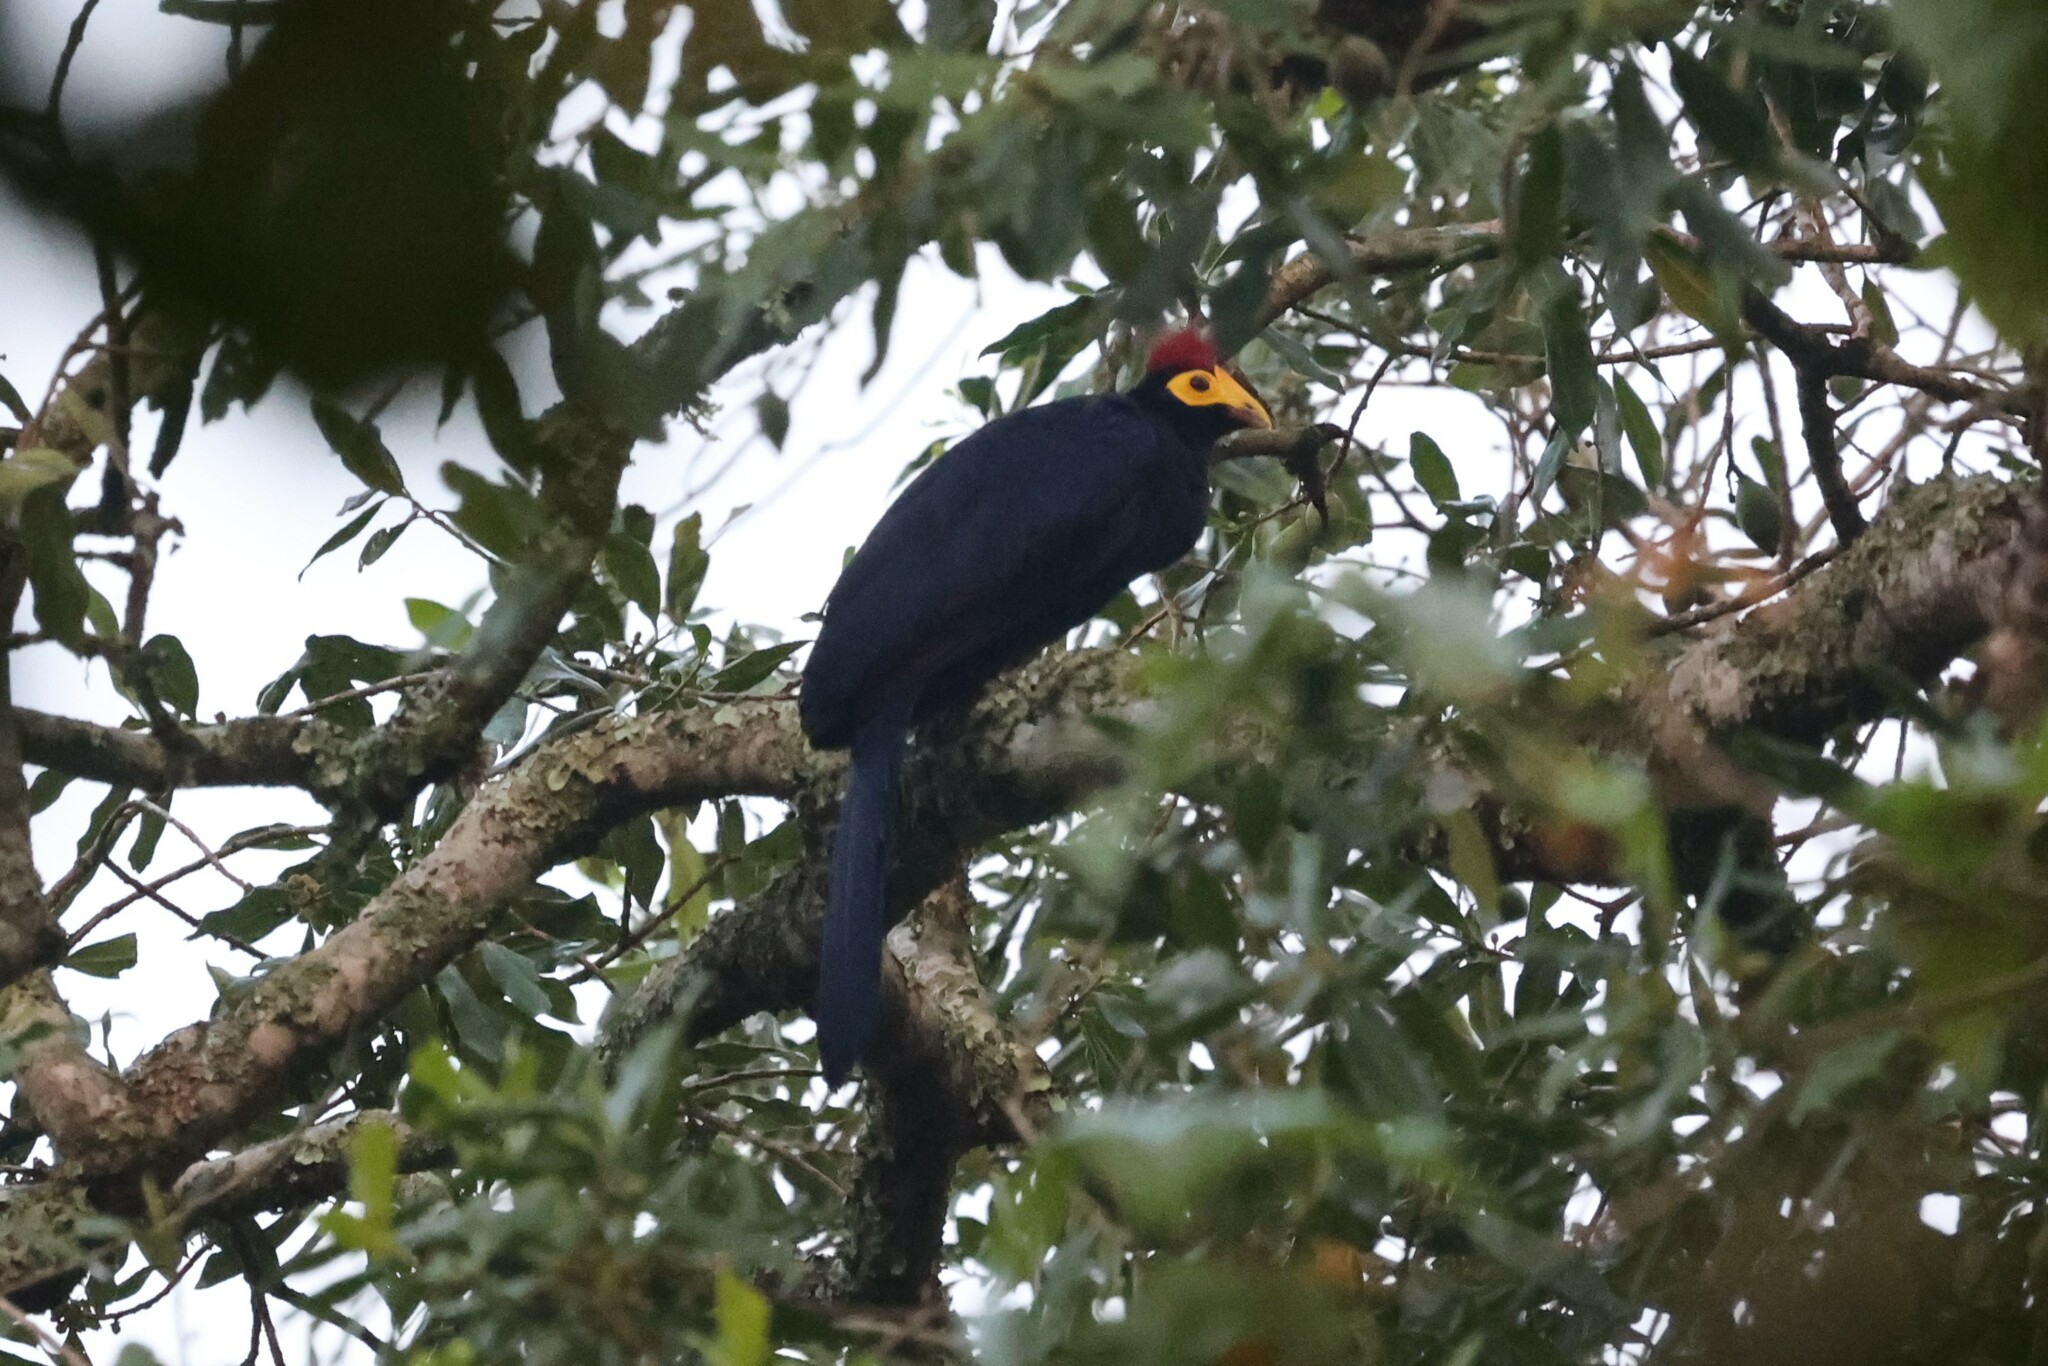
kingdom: Animalia
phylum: Chordata
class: Aves
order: Musophagiformes
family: Musophagidae
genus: Musophaga
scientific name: Musophaga rossae
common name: Ross's turaco
